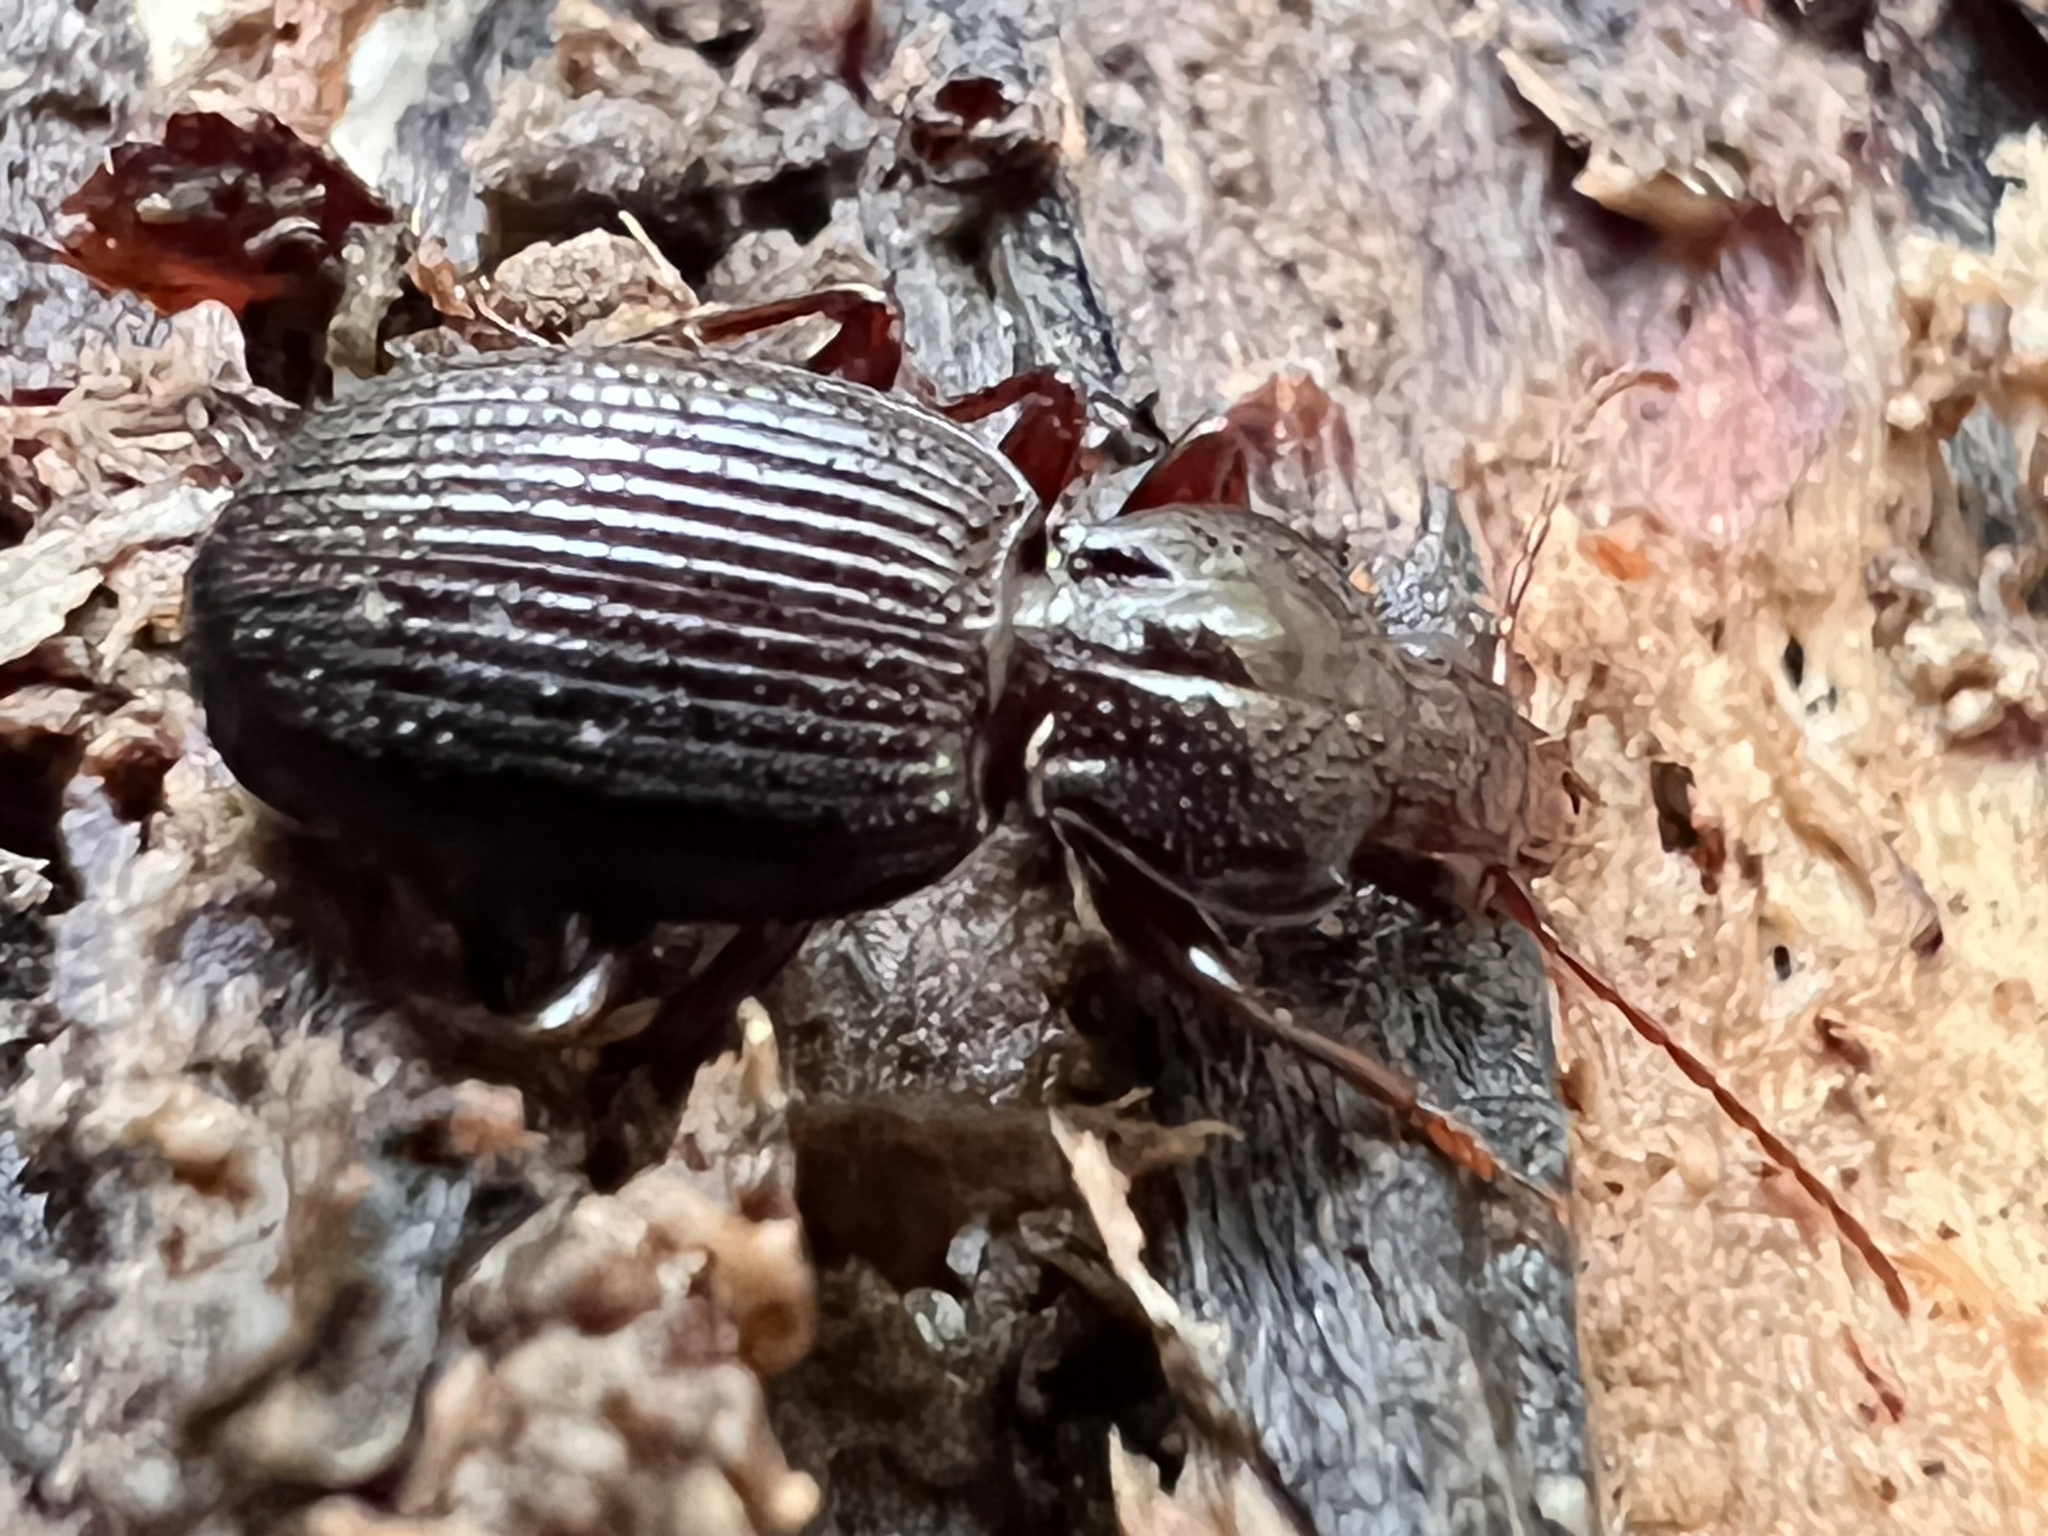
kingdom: Animalia
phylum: Arthropoda
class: Insecta
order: Coleoptera
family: Carabidae
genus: Gastrellarius
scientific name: Gastrellarius honestus
